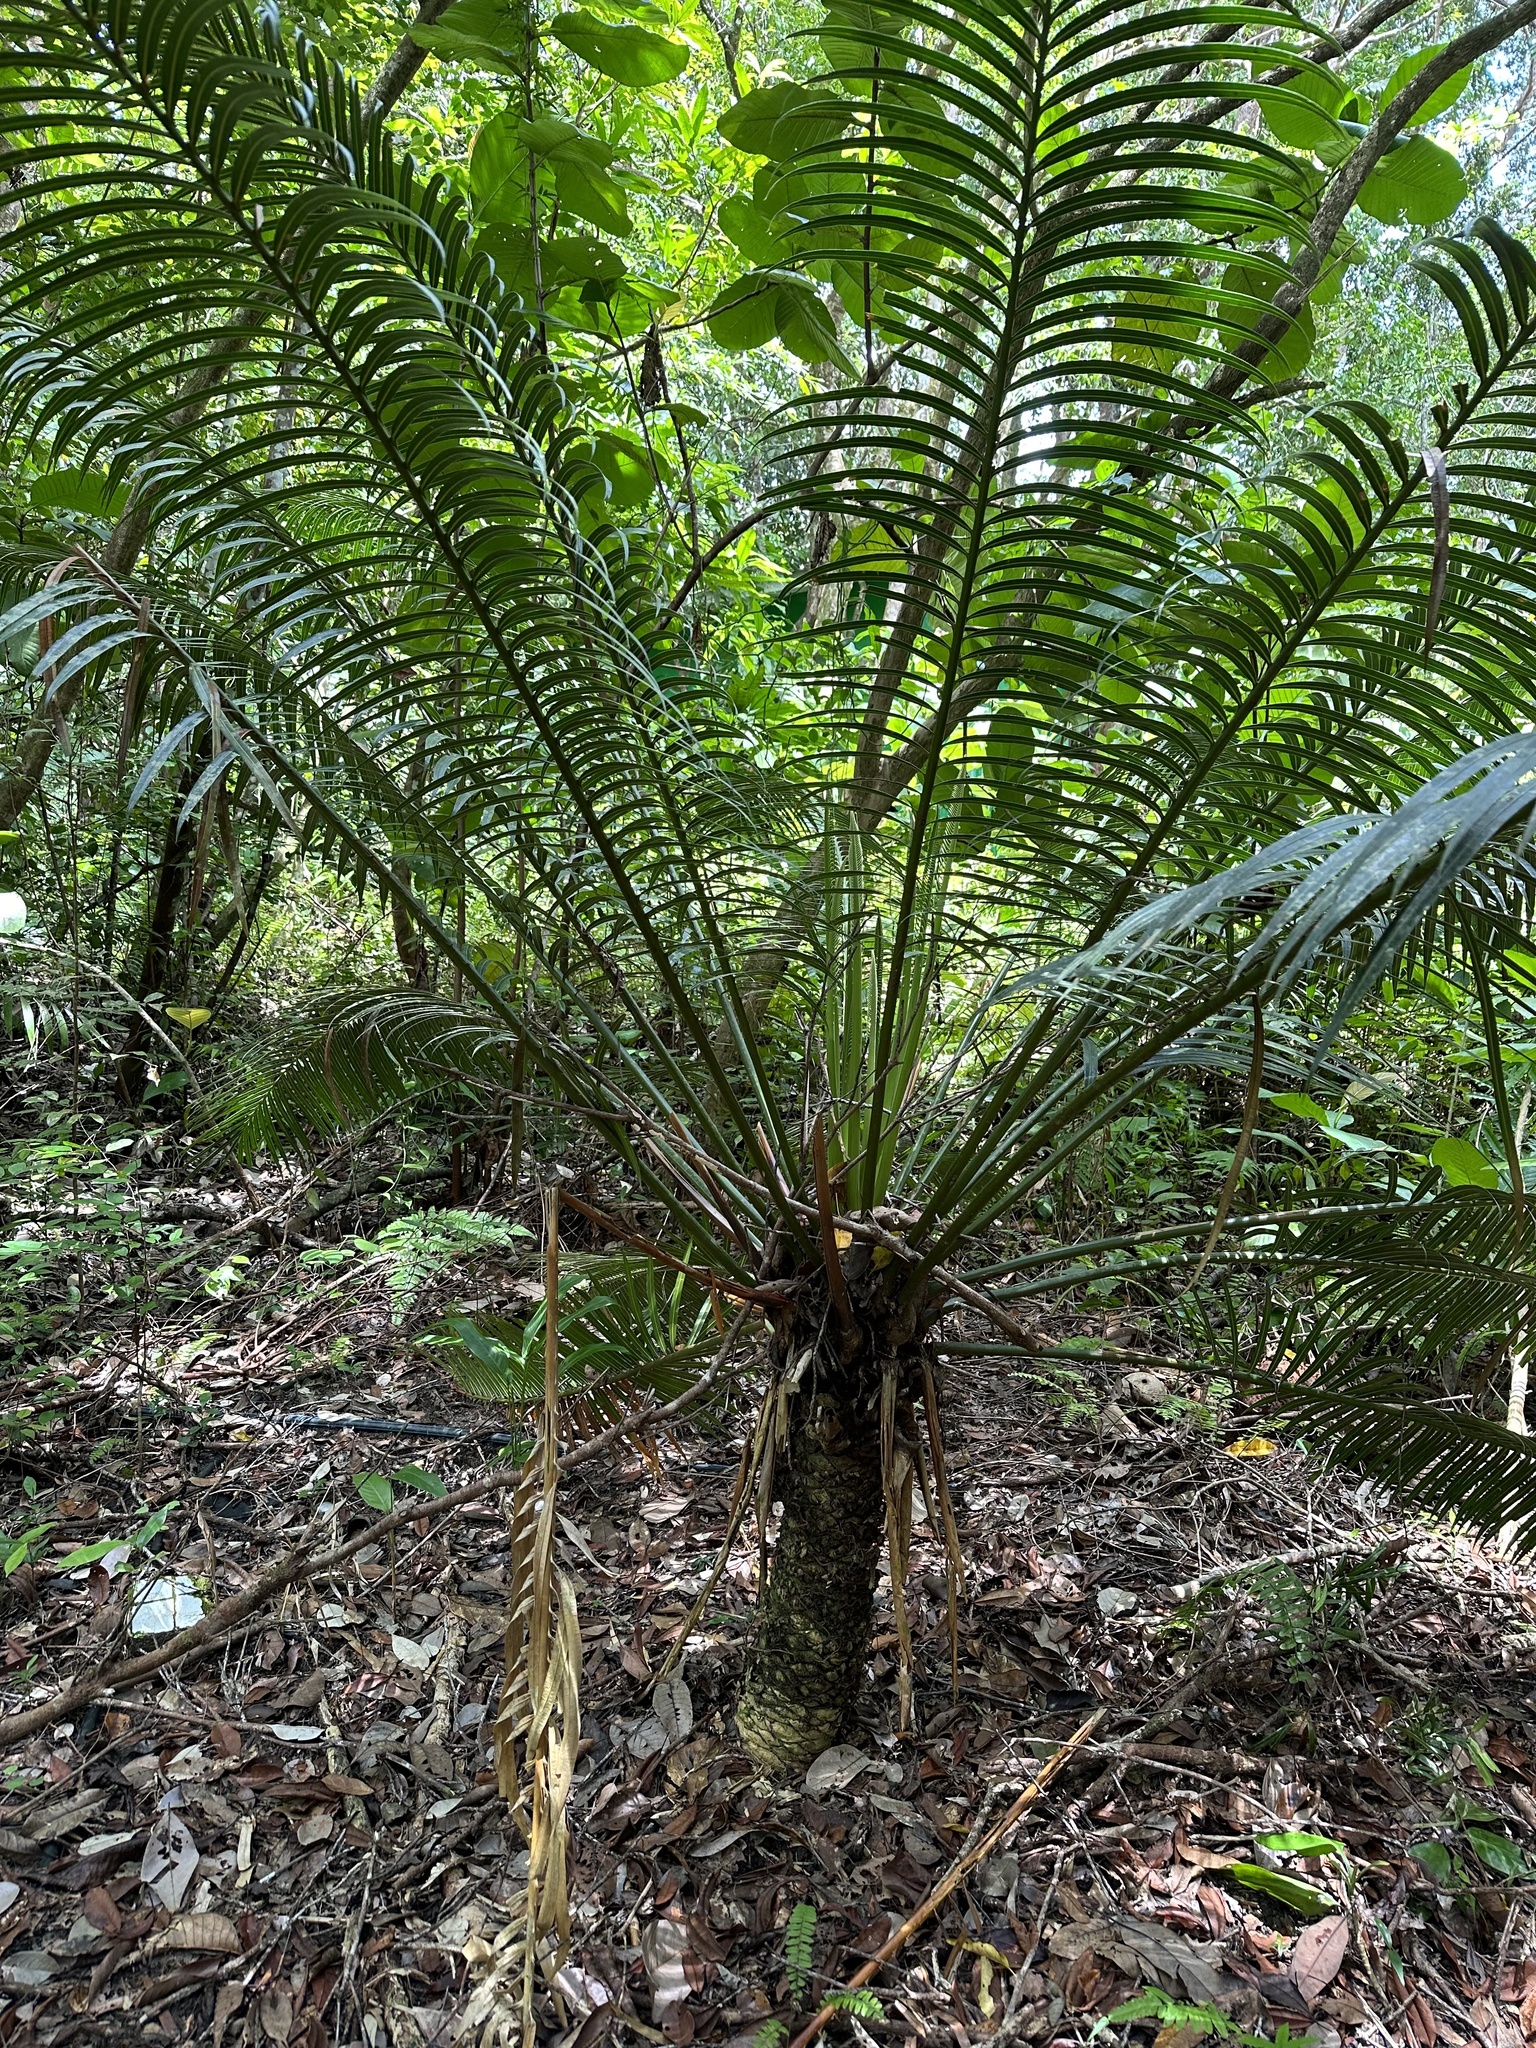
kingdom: Plantae
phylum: Tracheophyta
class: Cycadopsida
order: Cycadales
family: Cycadaceae
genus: Cycas
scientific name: Cycas edentata
